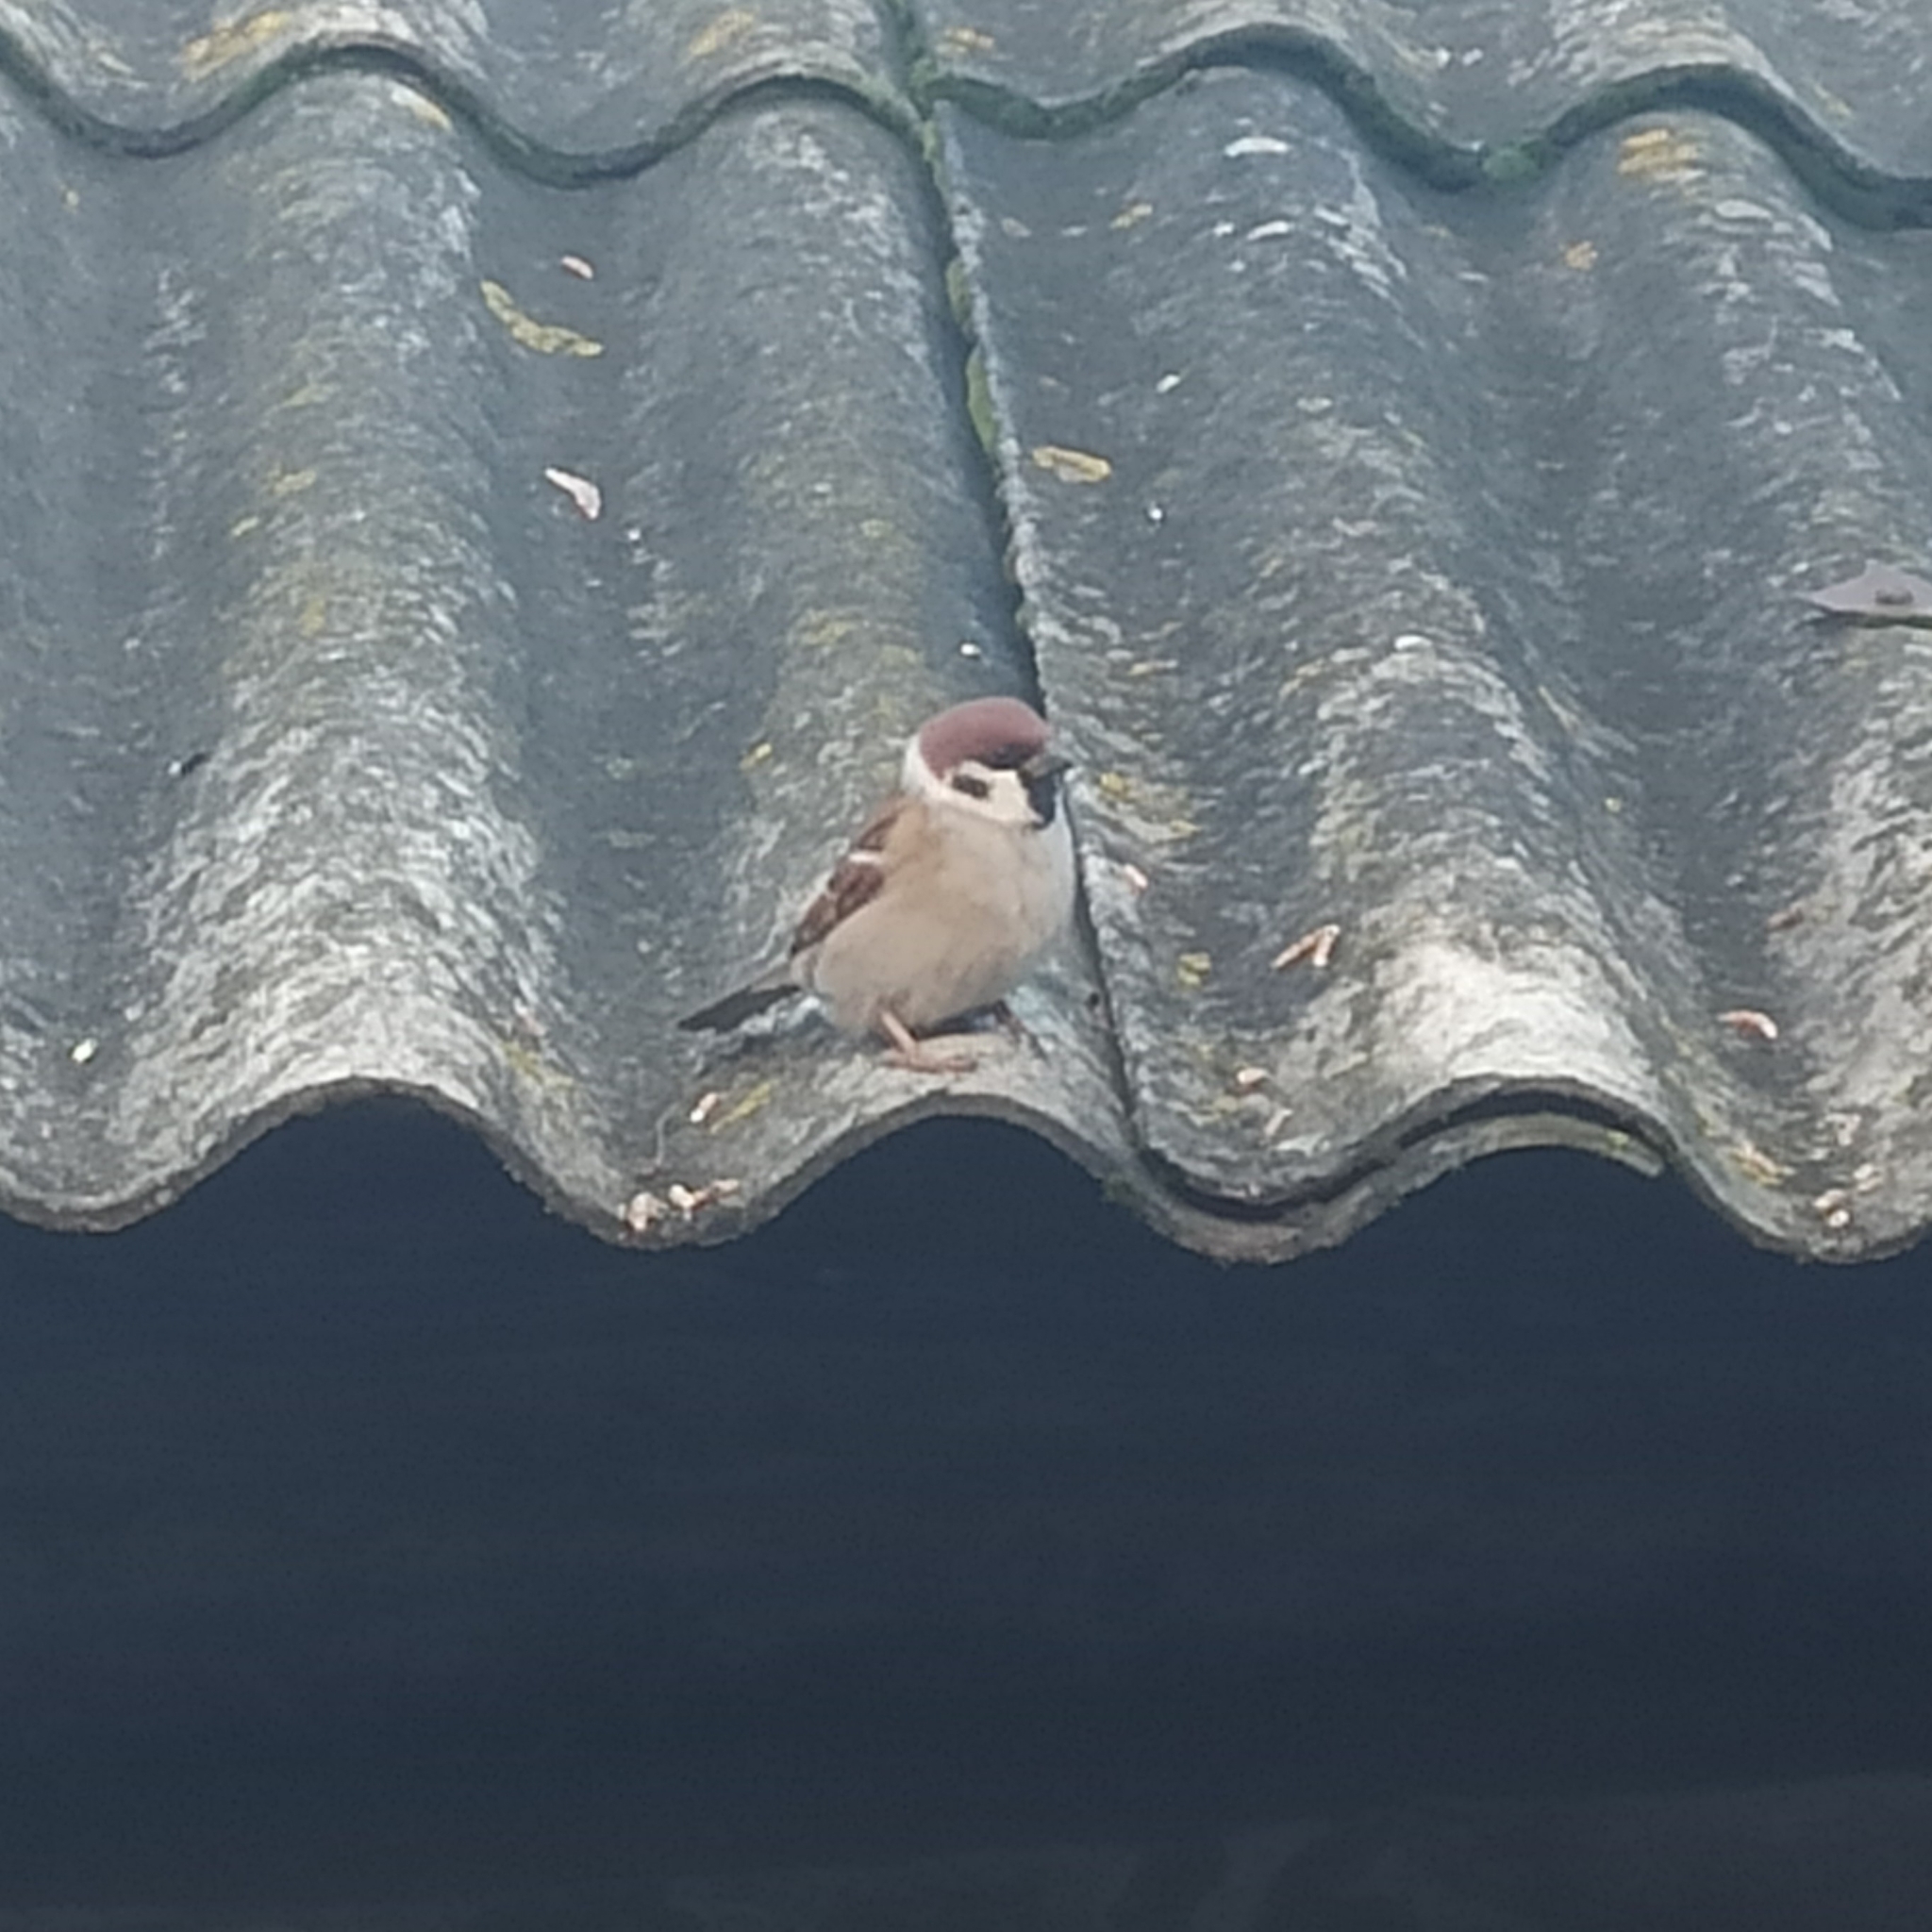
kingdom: Animalia
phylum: Chordata
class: Aves
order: Passeriformes
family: Passeridae
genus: Passer
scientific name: Passer montanus
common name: Eurasian tree sparrow
